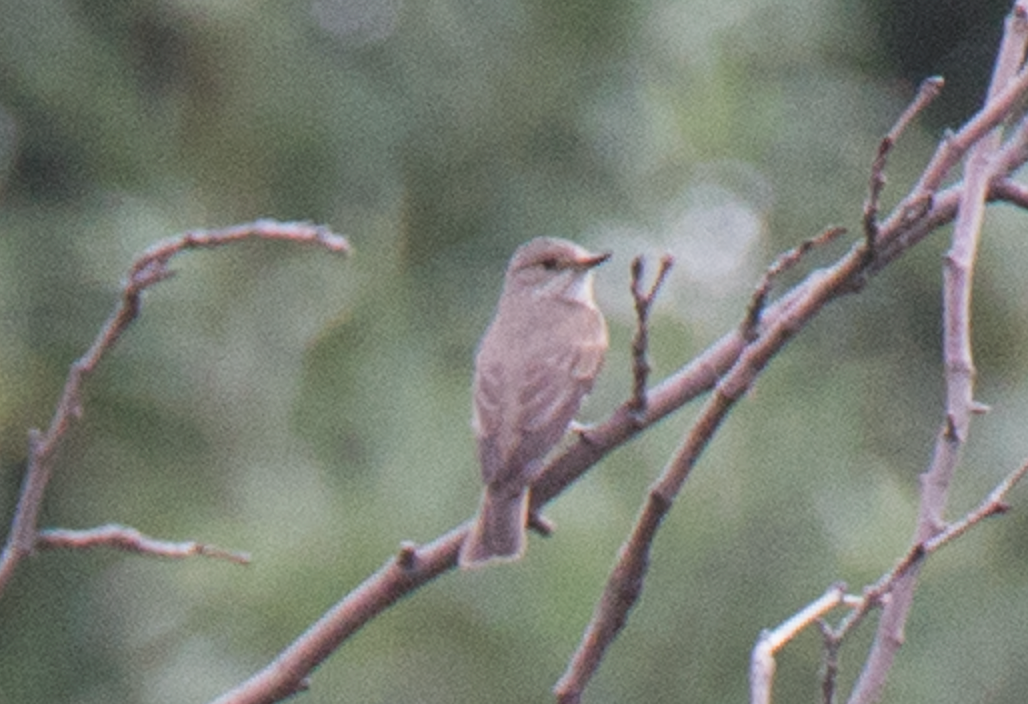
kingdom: Animalia
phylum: Chordata
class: Aves
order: Passeriformes
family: Muscicapidae
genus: Muscicapa
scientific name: Muscicapa striata
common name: Spotted flycatcher
